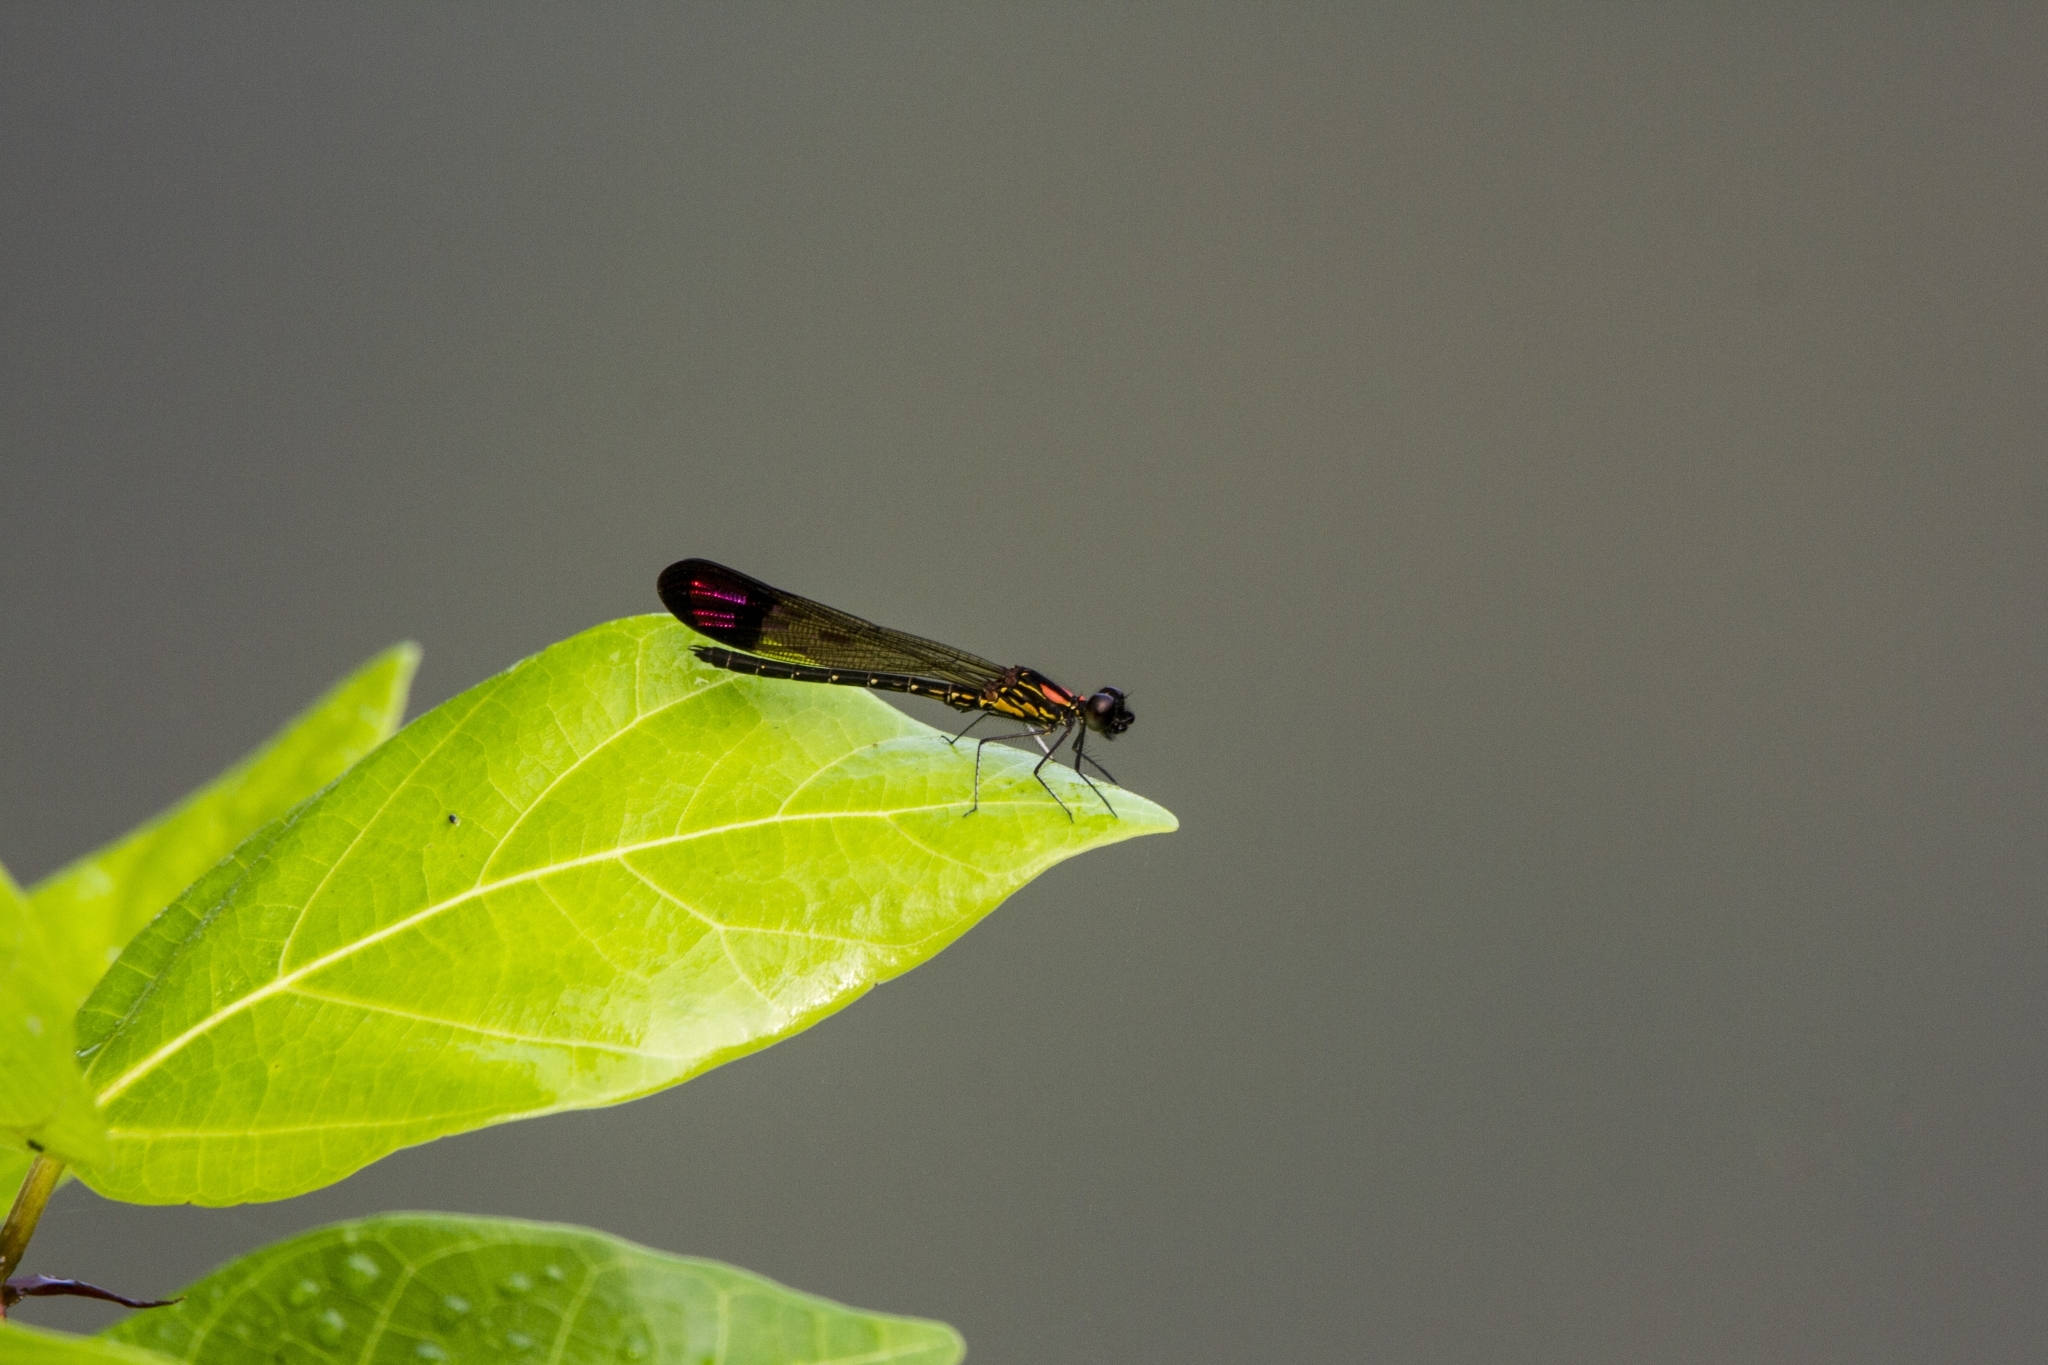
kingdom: Animalia
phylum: Arthropoda
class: Insecta
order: Odonata
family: Chlorocyphidae
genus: Heliocypha
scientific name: Heliocypha bisignata
